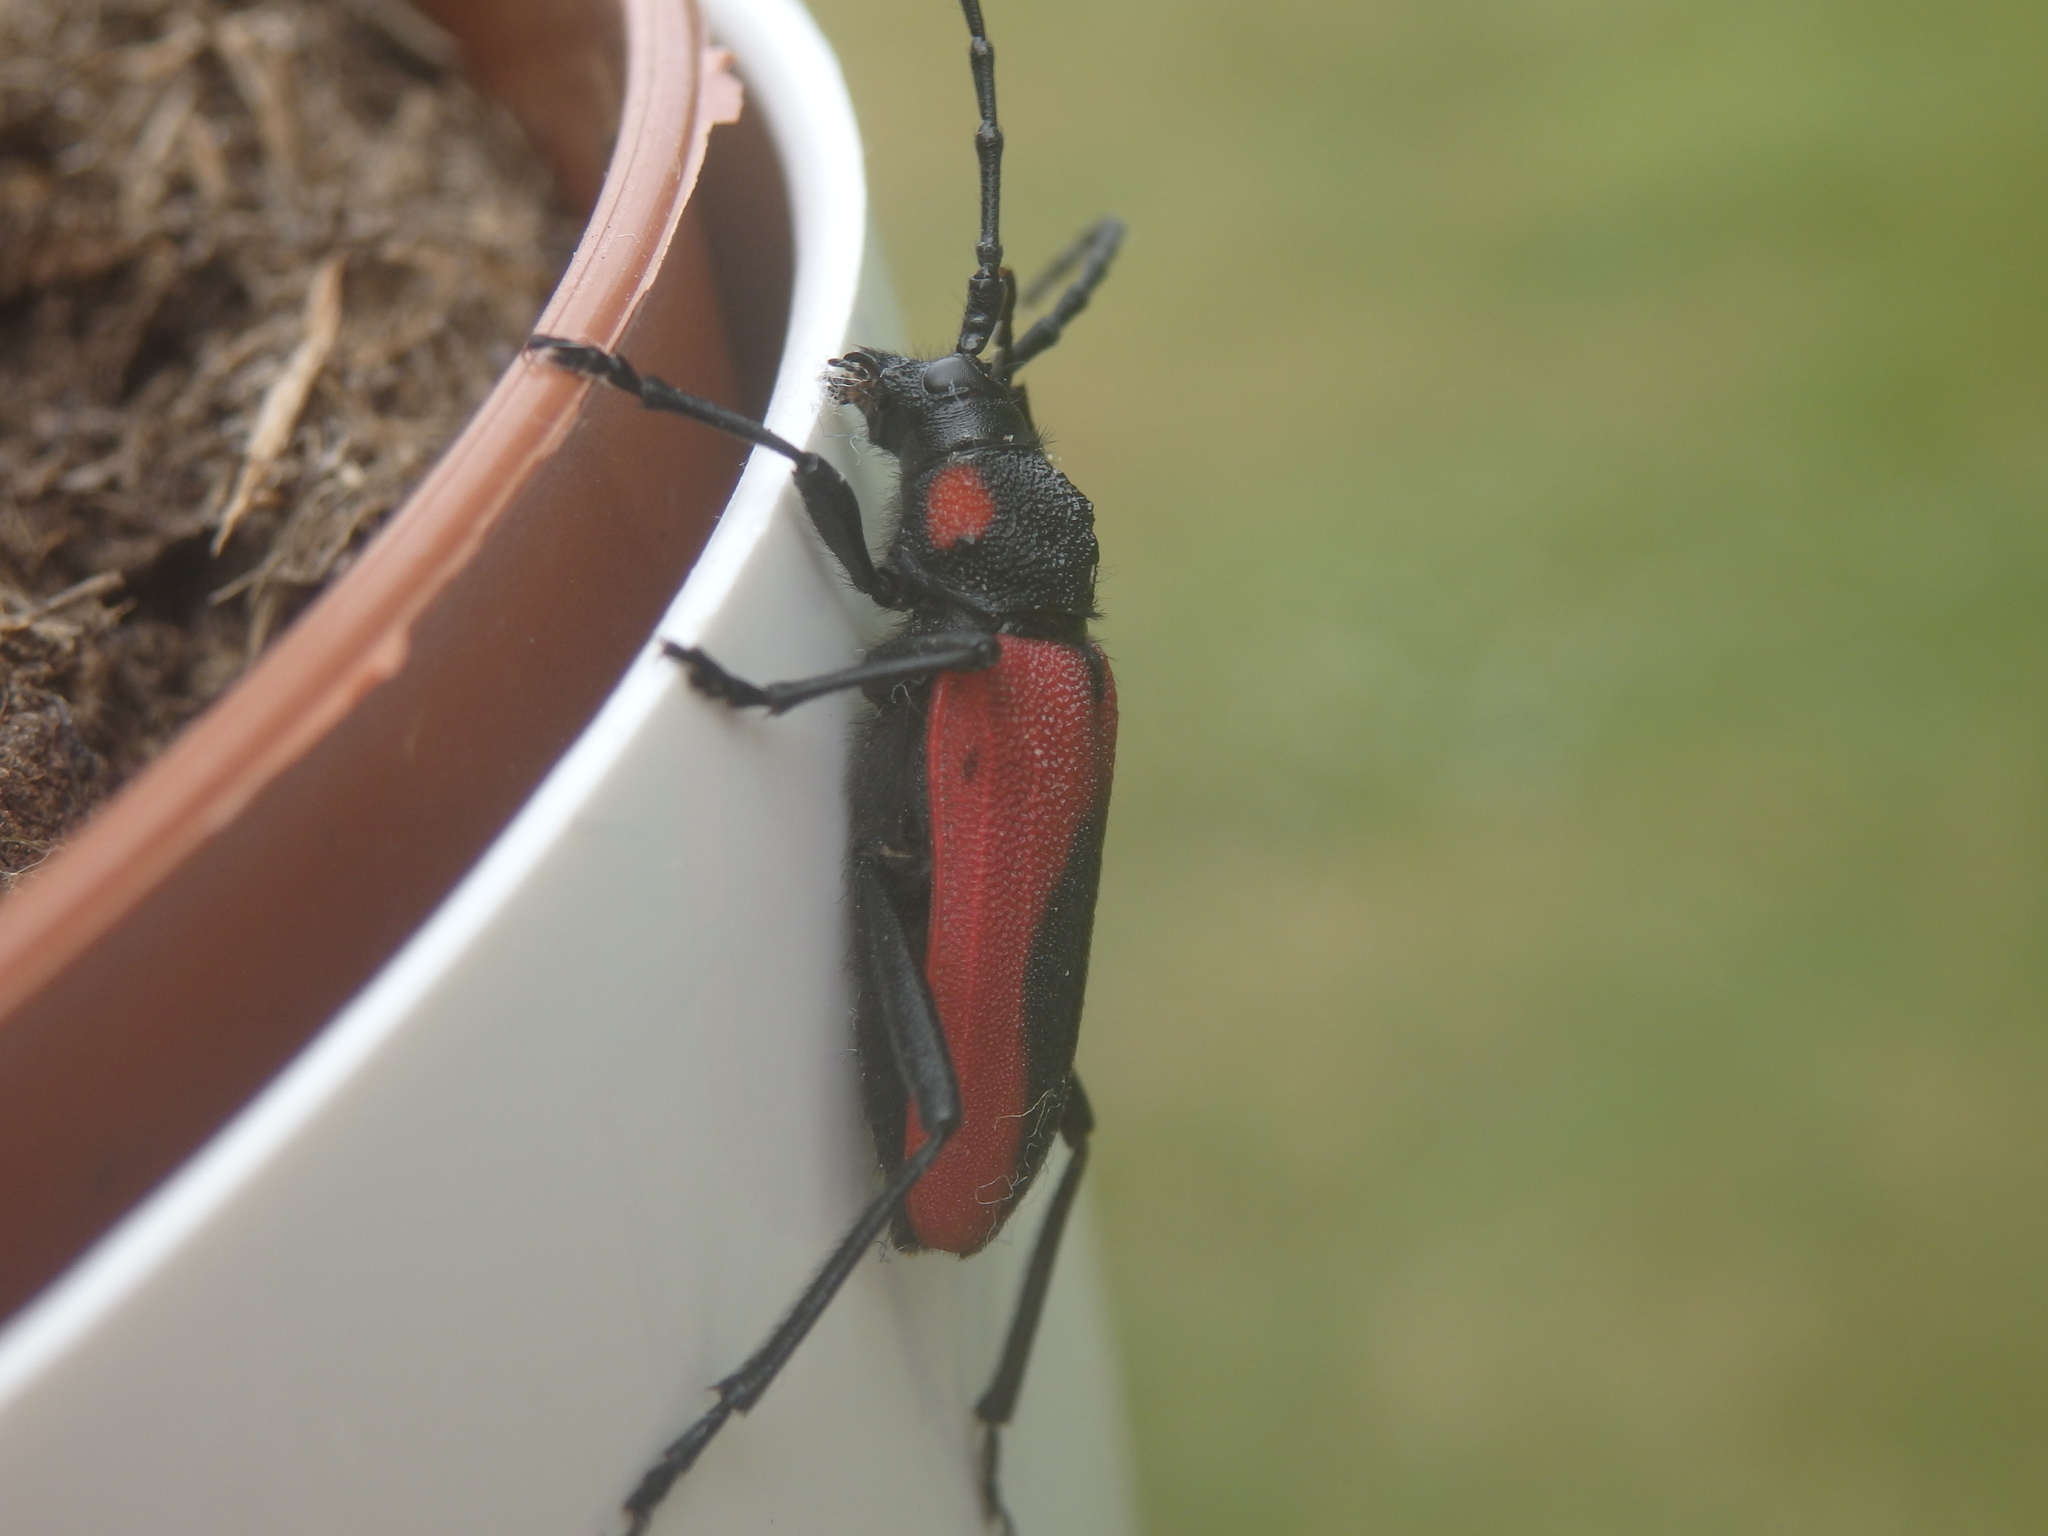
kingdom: Animalia
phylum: Arthropoda
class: Insecta
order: Coleoptera
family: Cerambycidae
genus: Purpuricenus
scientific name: Purpuricenus kaehleri
